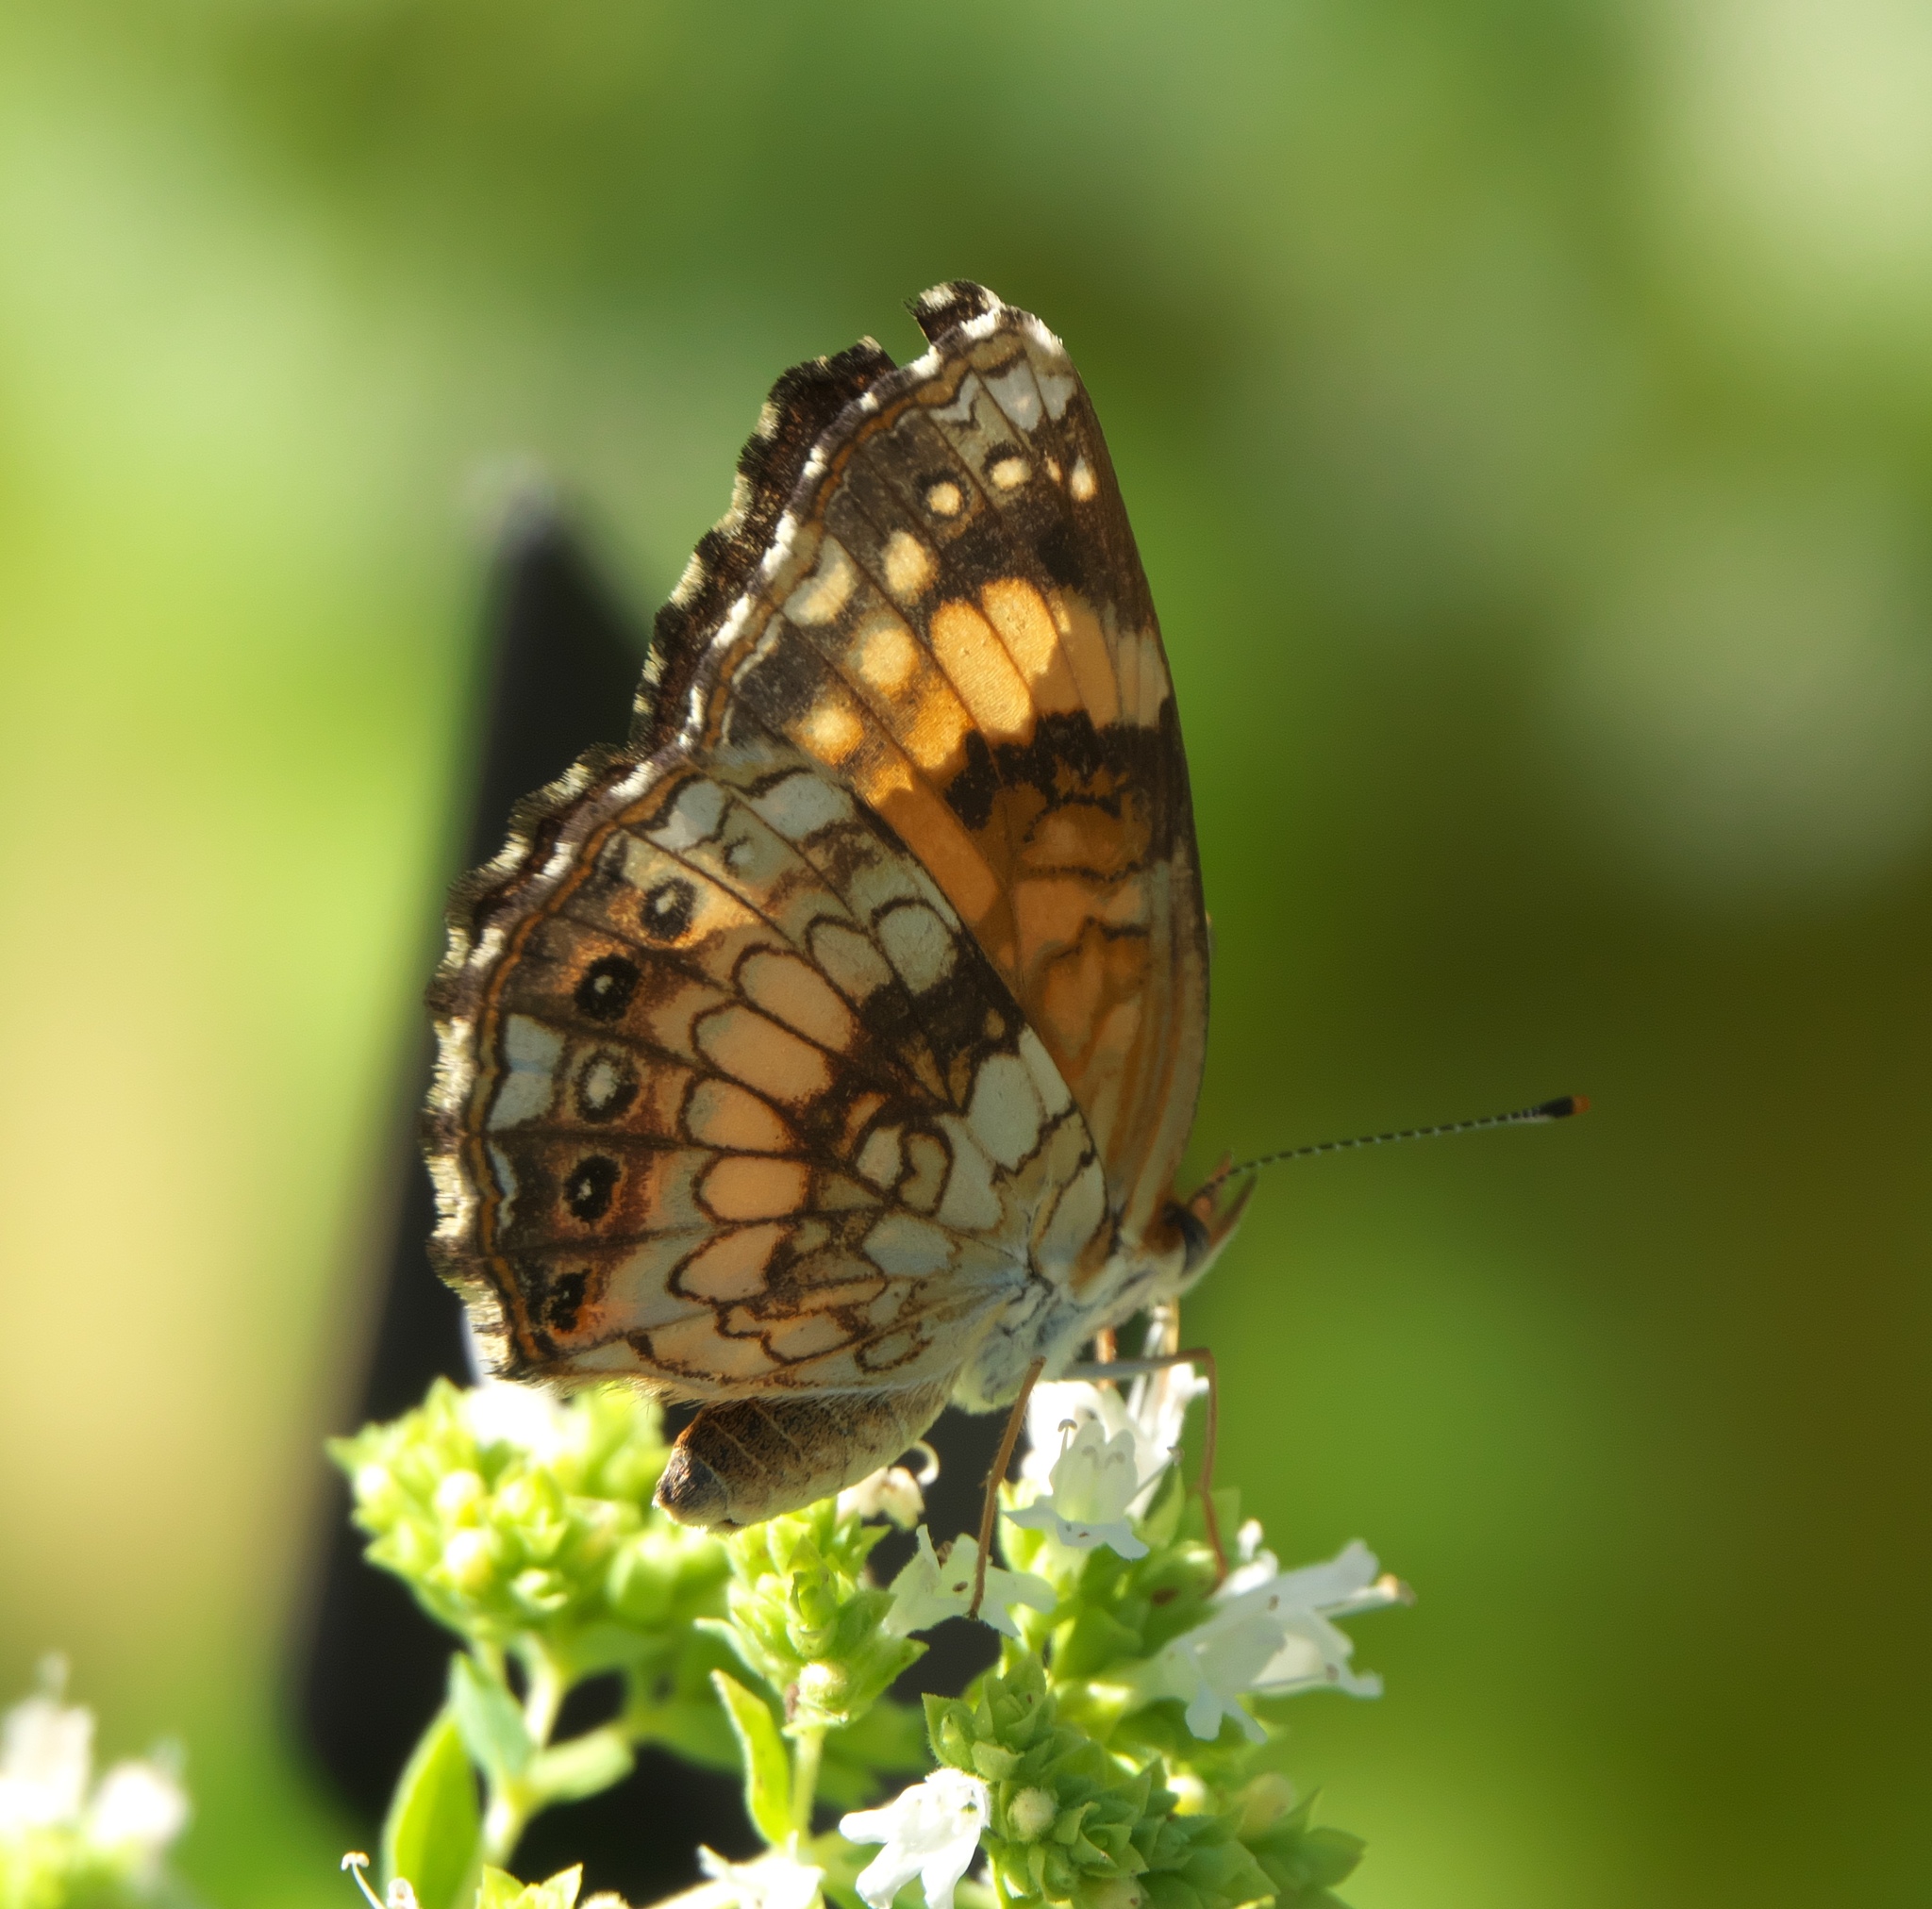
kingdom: Animalia
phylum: Arthropoda
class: Insecta
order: Lepidoptera
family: Nymphalidae
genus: Chlosyne
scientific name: Chlosyne nycteis
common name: Silvery checkerspot
